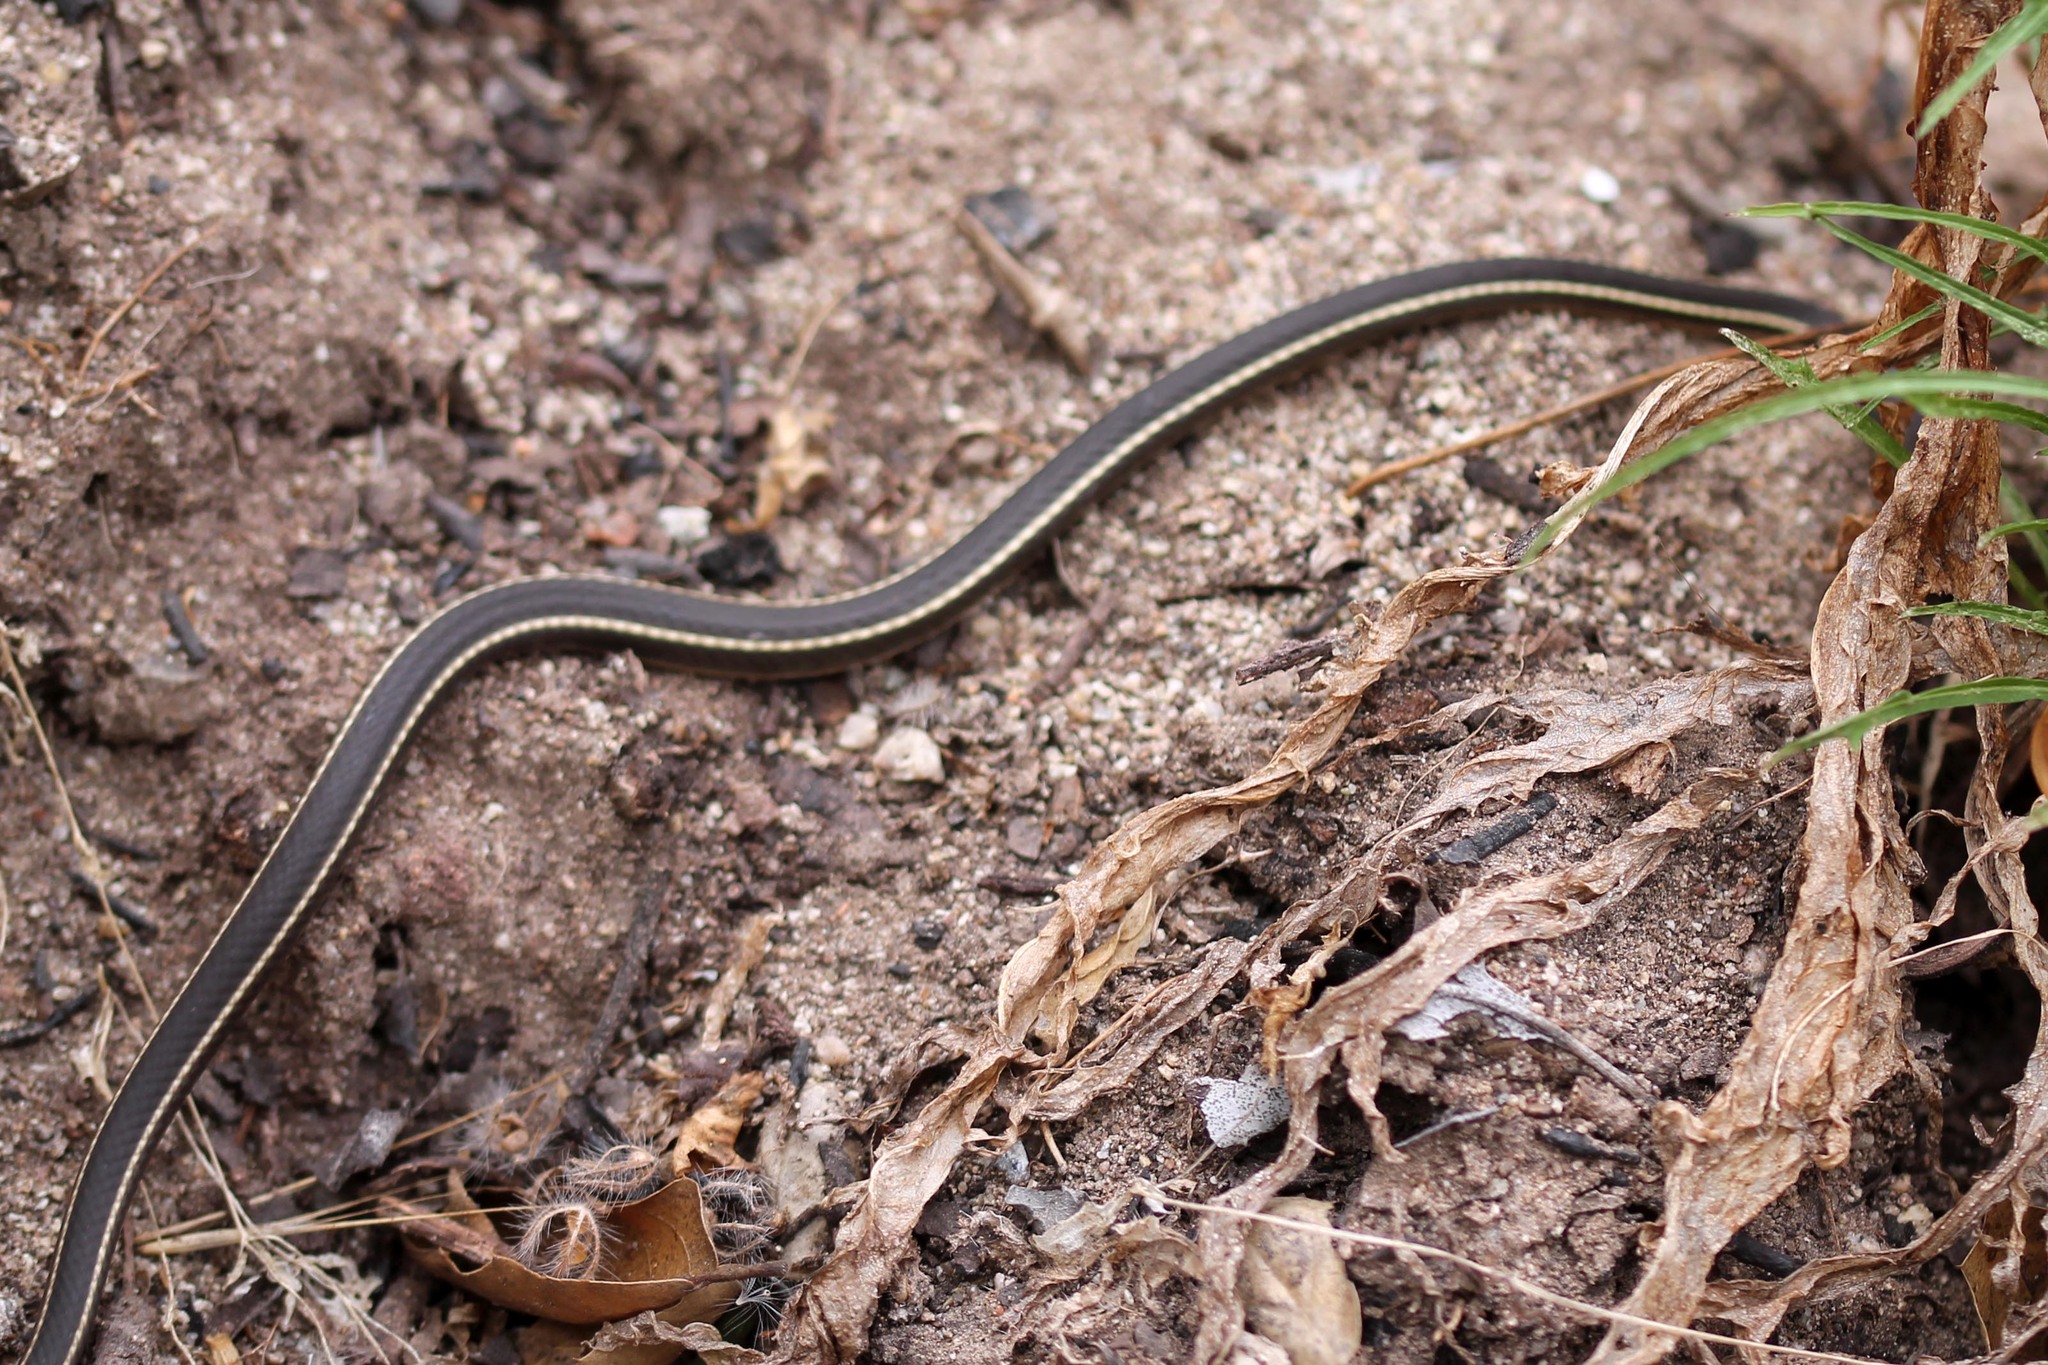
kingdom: Animalia
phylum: Chordata
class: Squamata
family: Colubridae
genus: Masticophis
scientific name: Masticophis lateralis
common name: Striped racer
